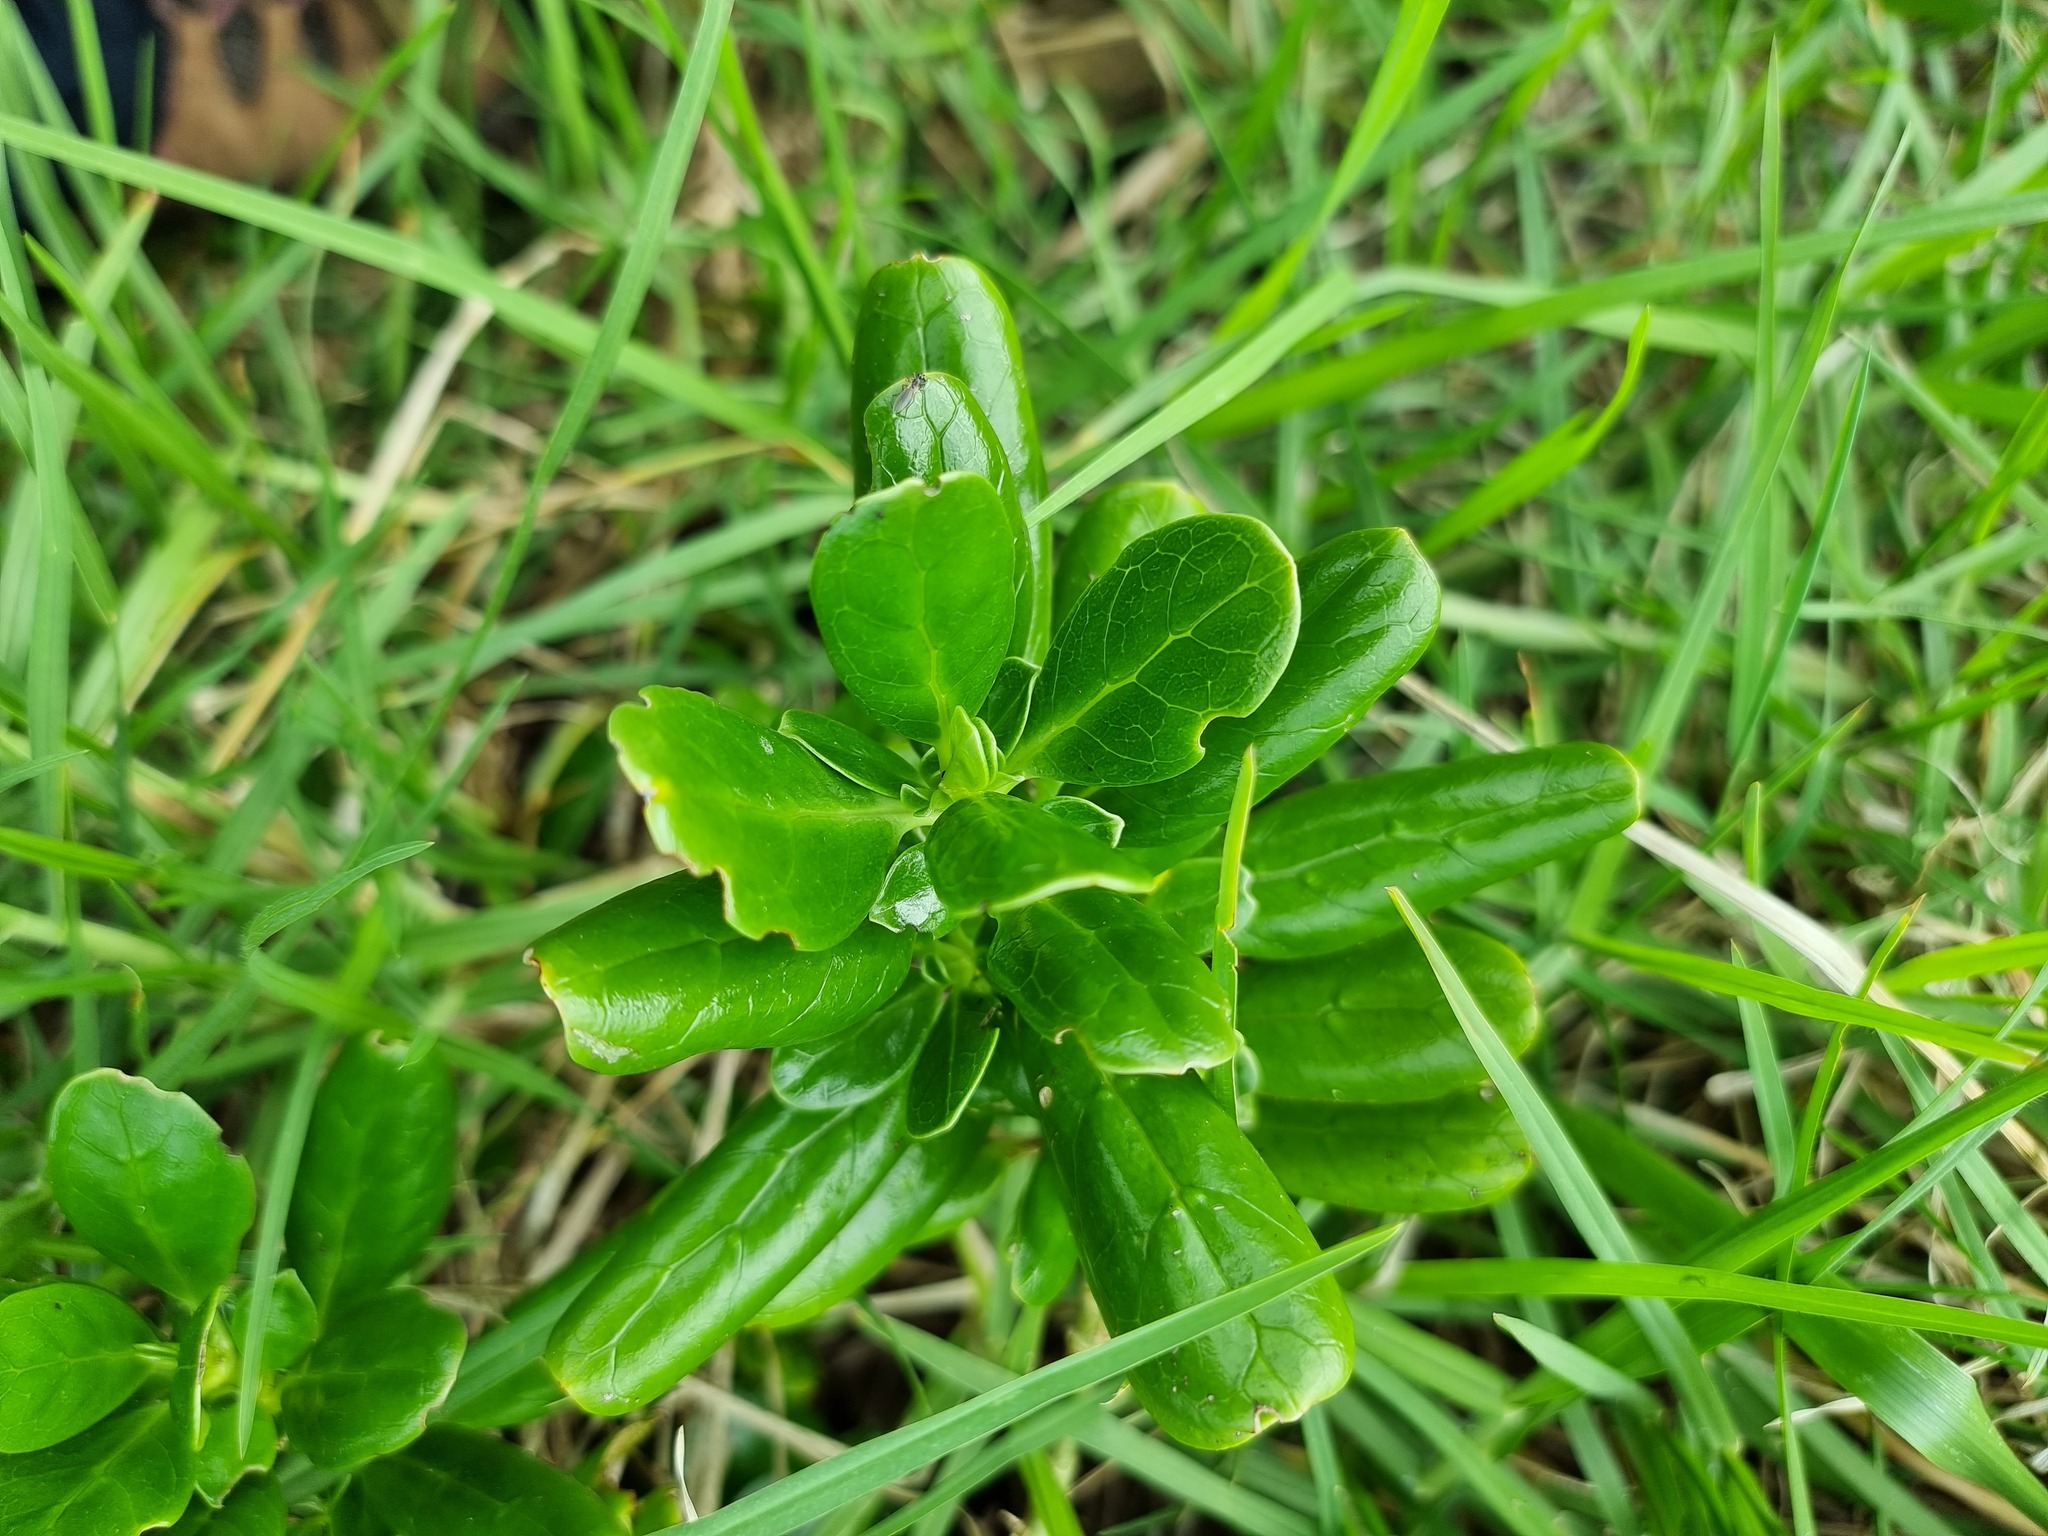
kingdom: Plantae
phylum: Tracheophyta
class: Magnoliopsida
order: Gentianales
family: Rubiaceae
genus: Coprosma
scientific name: Coprosma repens
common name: Tree bedstraw
